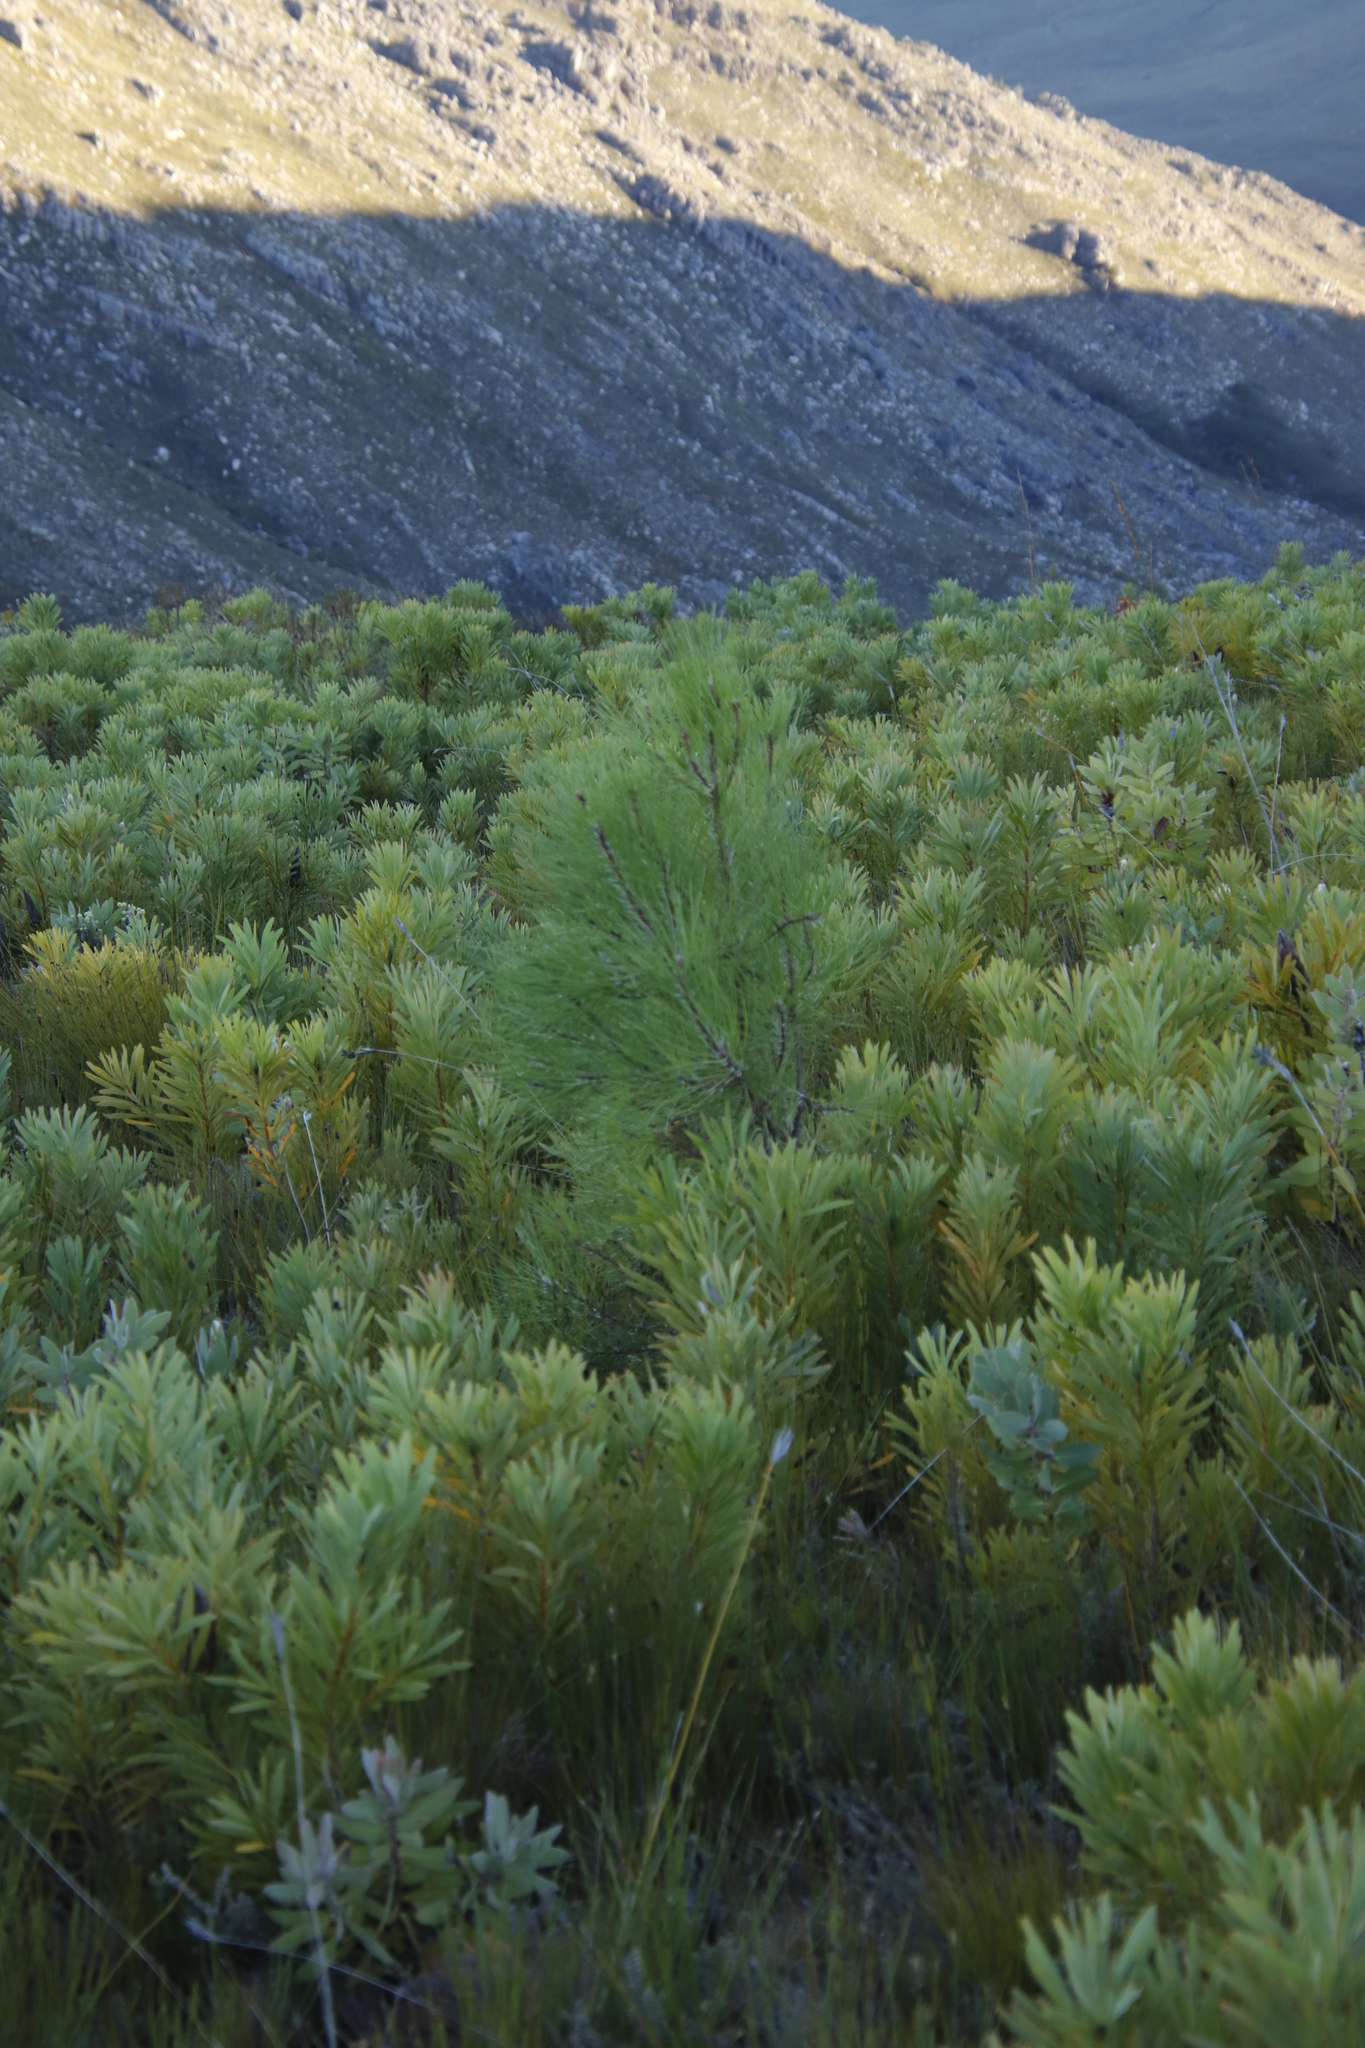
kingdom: Plantae
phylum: Tracheophyta
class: Pinopsida
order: Pinales
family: Pinaceae
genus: Pinus
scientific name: Pinus pinaster
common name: Maritime pine
